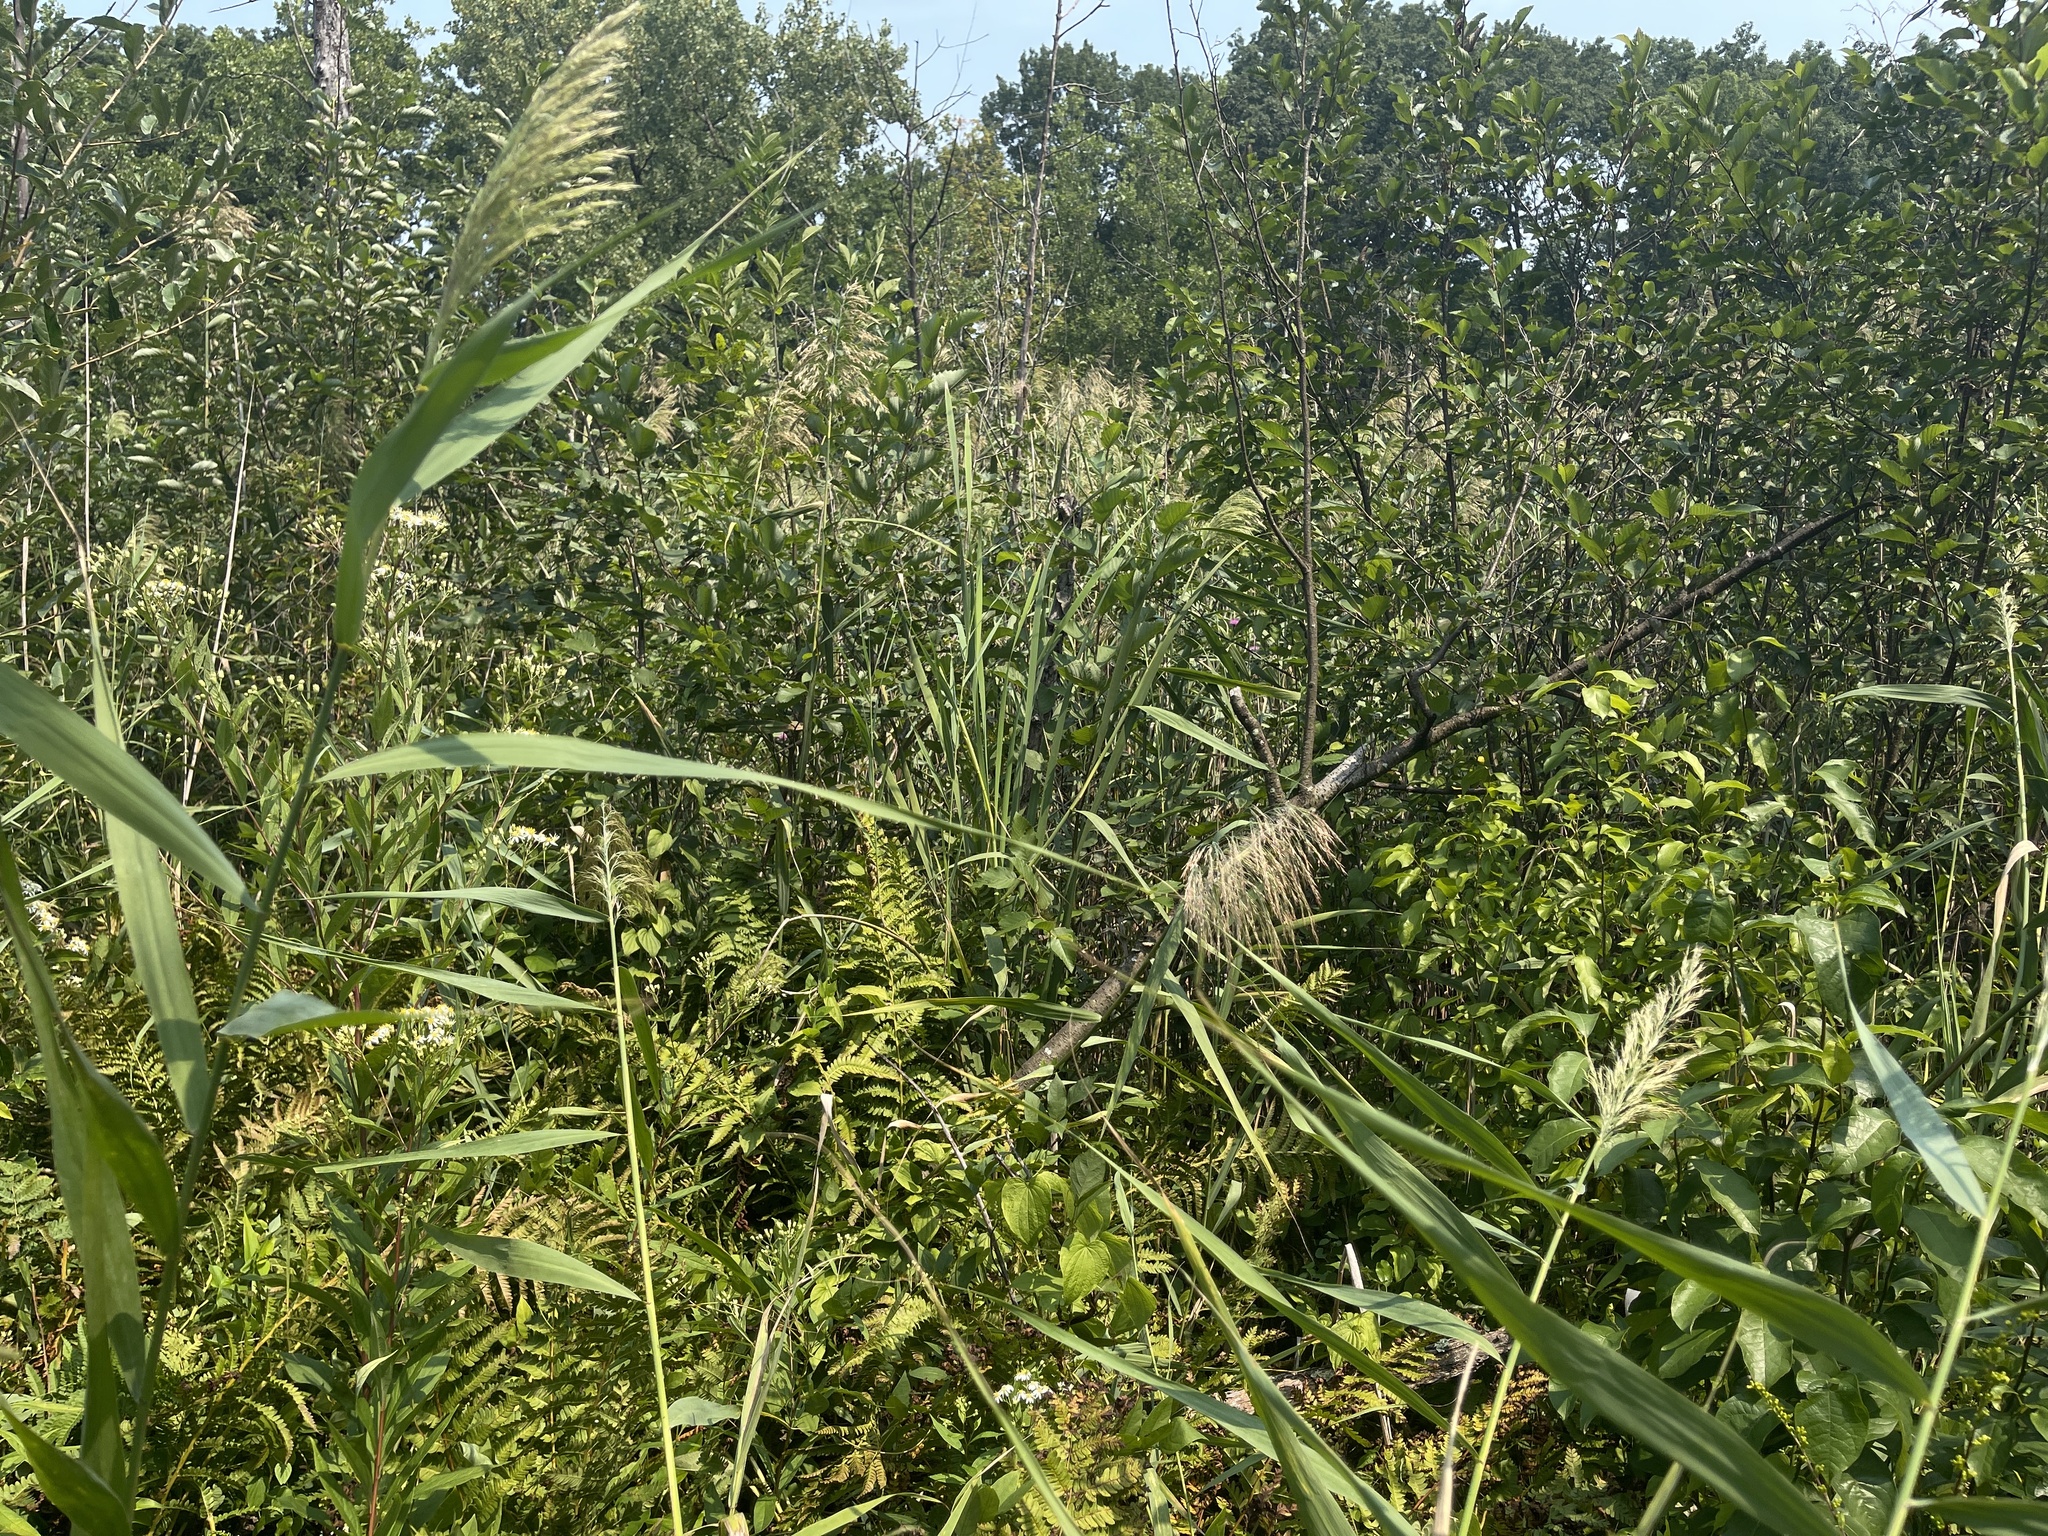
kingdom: Plantae
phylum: Tracheophyta
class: Liliopsida
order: Poales
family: Poaceae
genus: Phragmites
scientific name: Phragmites australis
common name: Common reed
